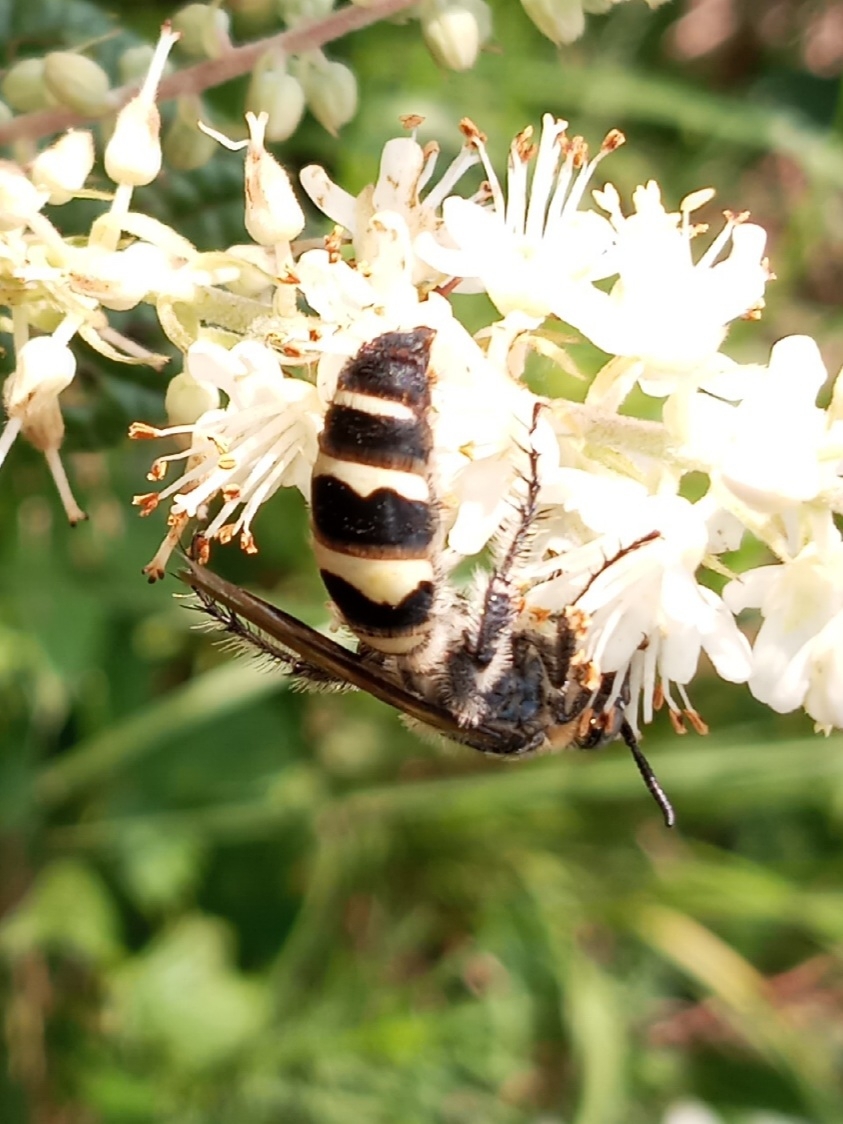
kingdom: Animalia
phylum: Arthropoda
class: Insecta
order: Hymenoptera
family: Scoliidae
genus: Dielis
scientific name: Dielis
